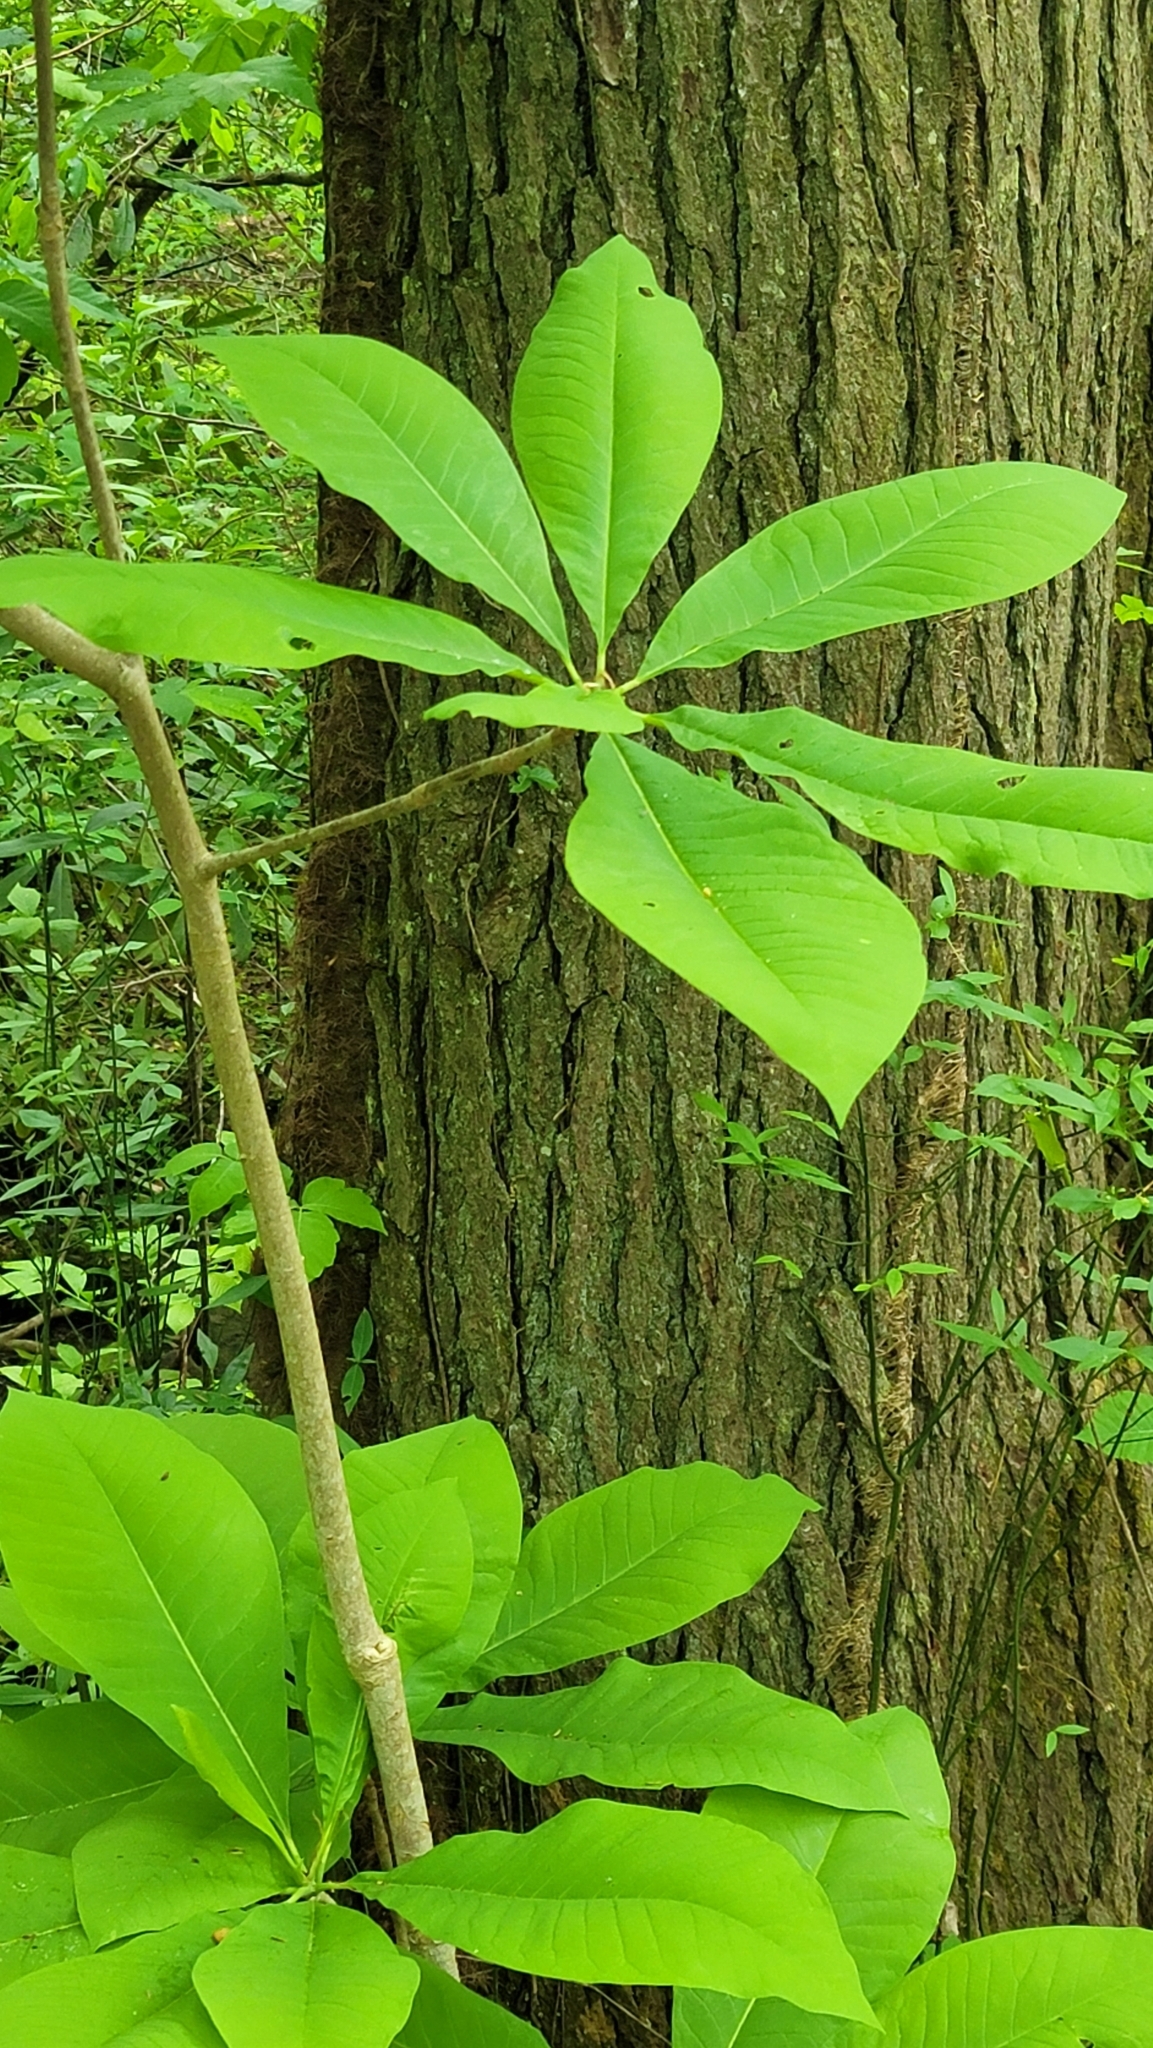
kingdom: Plantae
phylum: Tracheophyta
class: Magnoliopsida
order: Magnoliales
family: Magnoliaceae
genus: Magnolia
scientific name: Magnolia tripetala
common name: Umbrella magnolia
